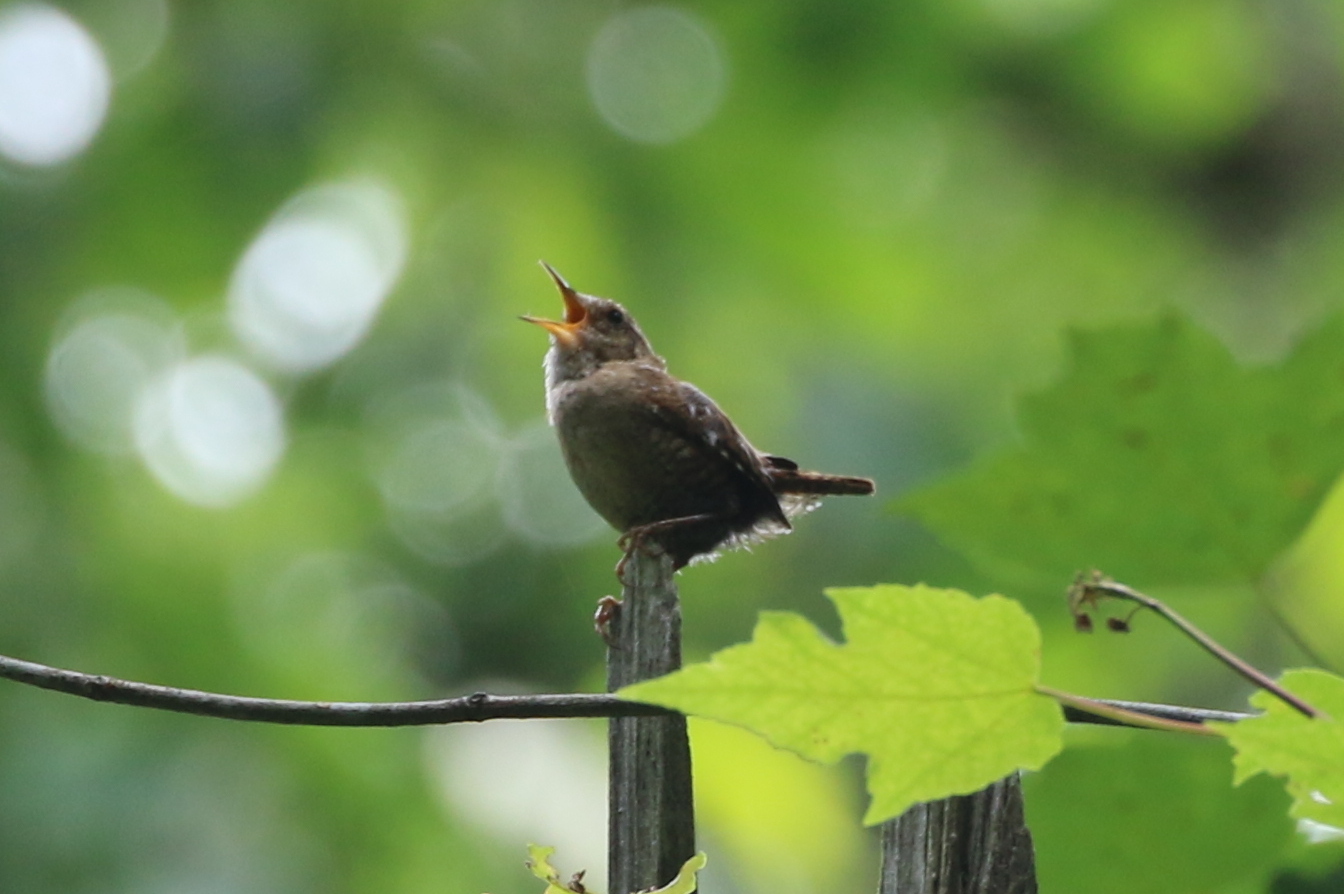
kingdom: Animalia
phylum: Chordata
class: Aves
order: Passeriformes
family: Troglodytidae
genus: Troglodytes
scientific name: Troglodytes hiemalis
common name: Winter wren
